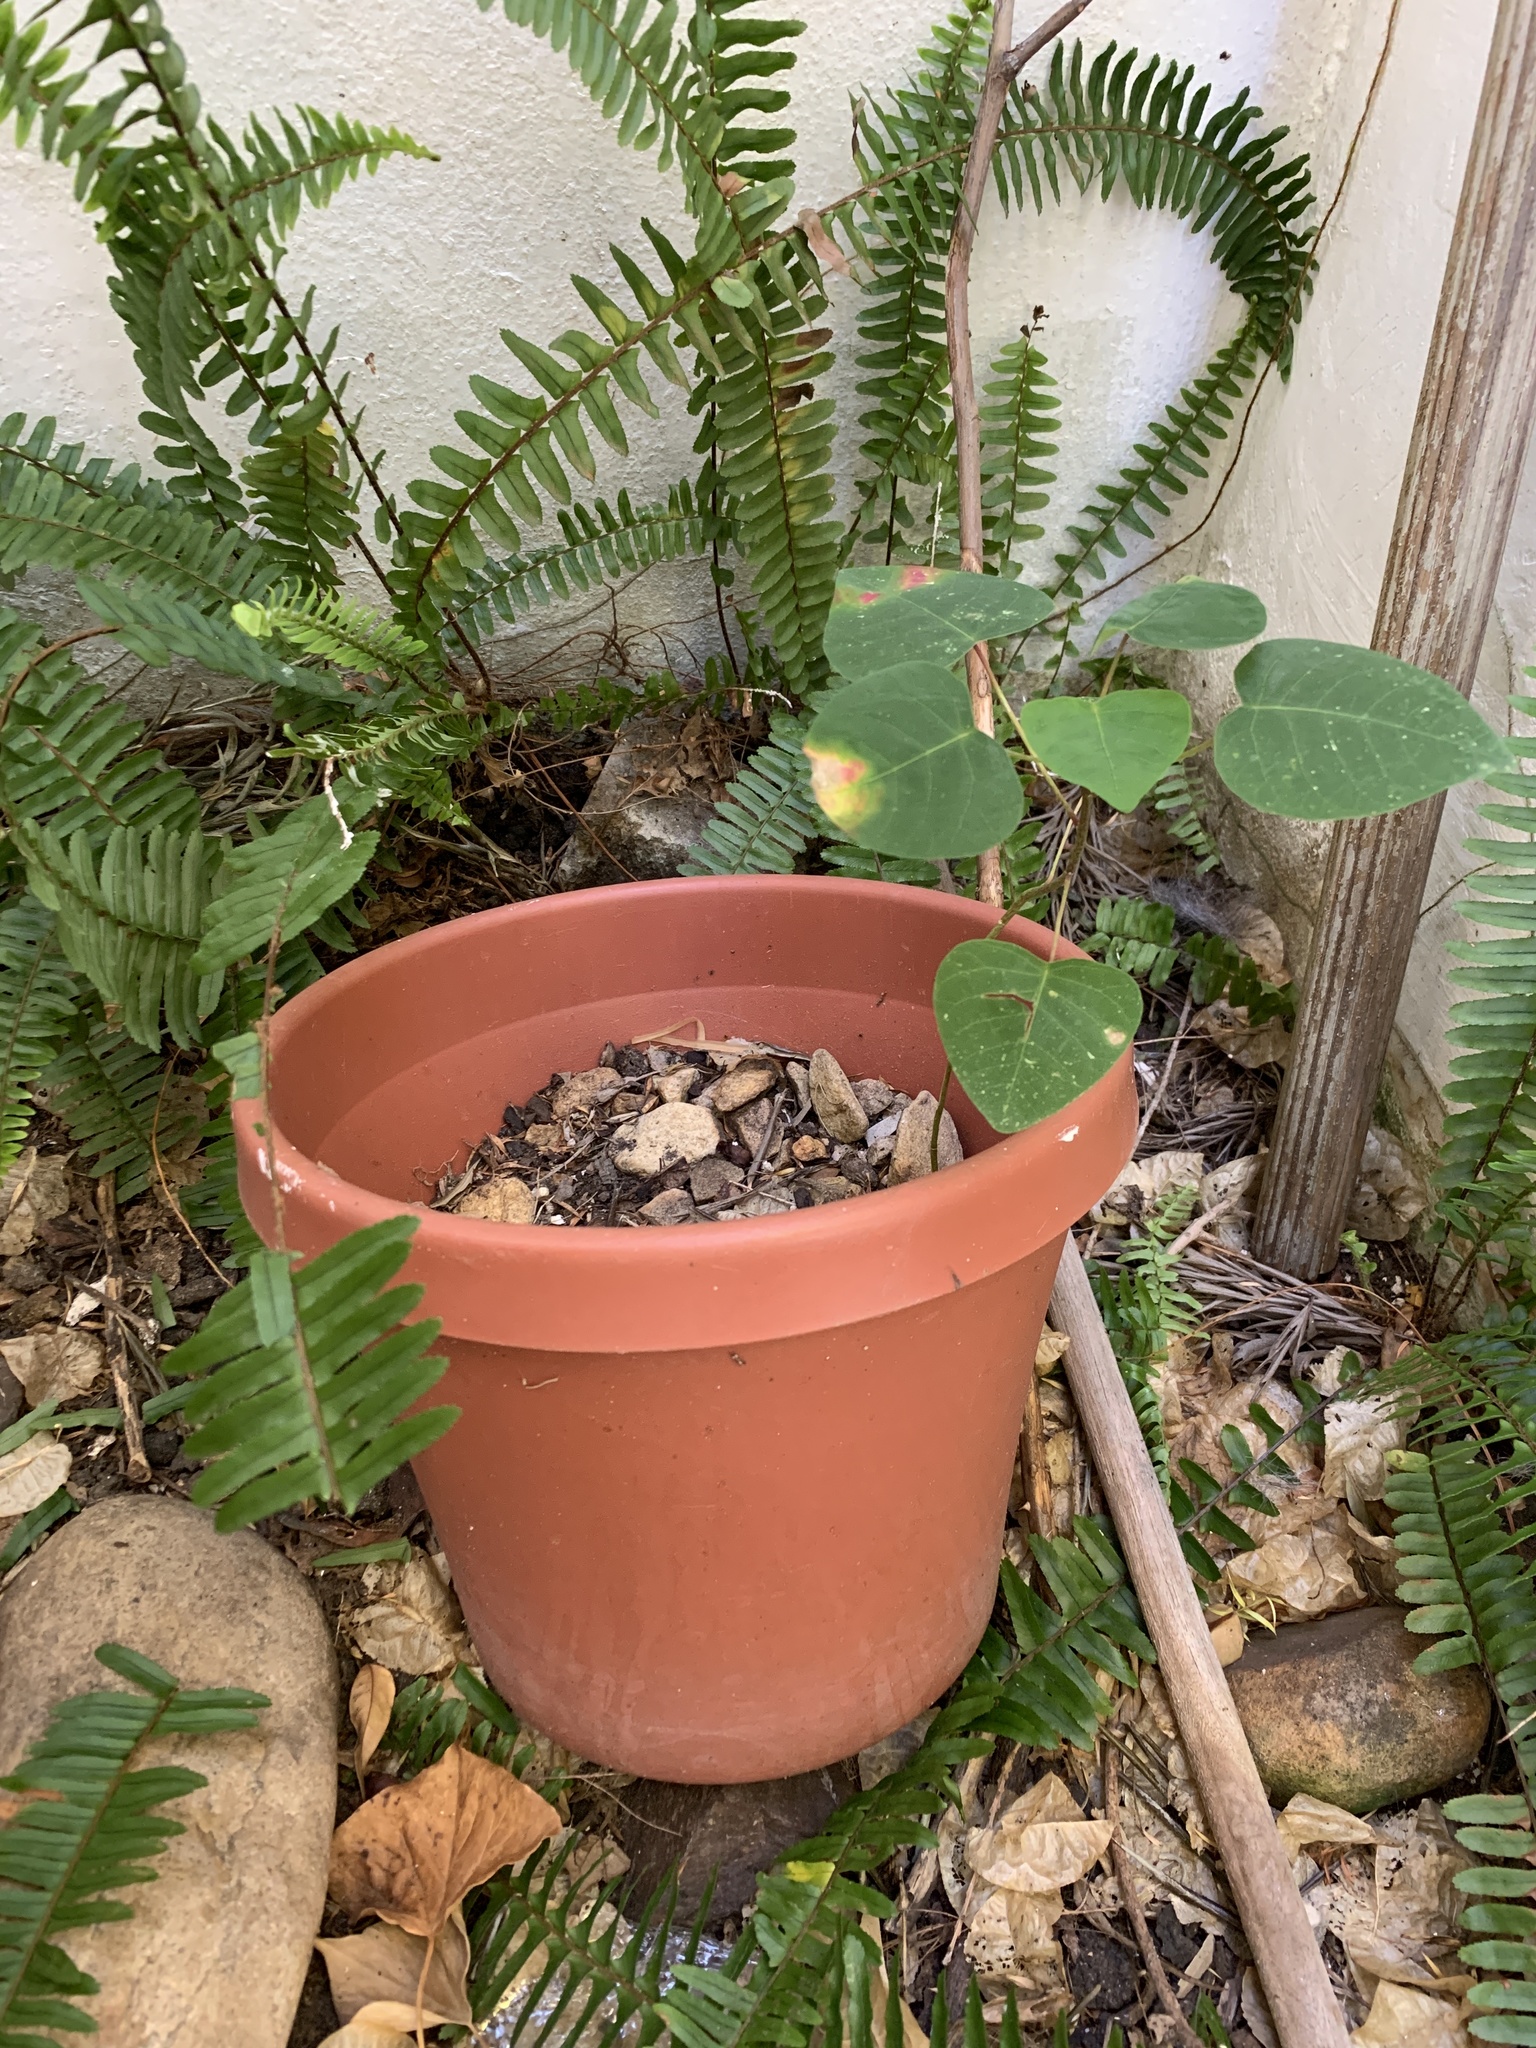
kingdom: Plantae
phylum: Tracheophyta
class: Magnoliopsida
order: Malpighiales
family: Euphorbiaceae
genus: Homalanthus
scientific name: Homalanthus populifolius
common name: Queensland poplar
